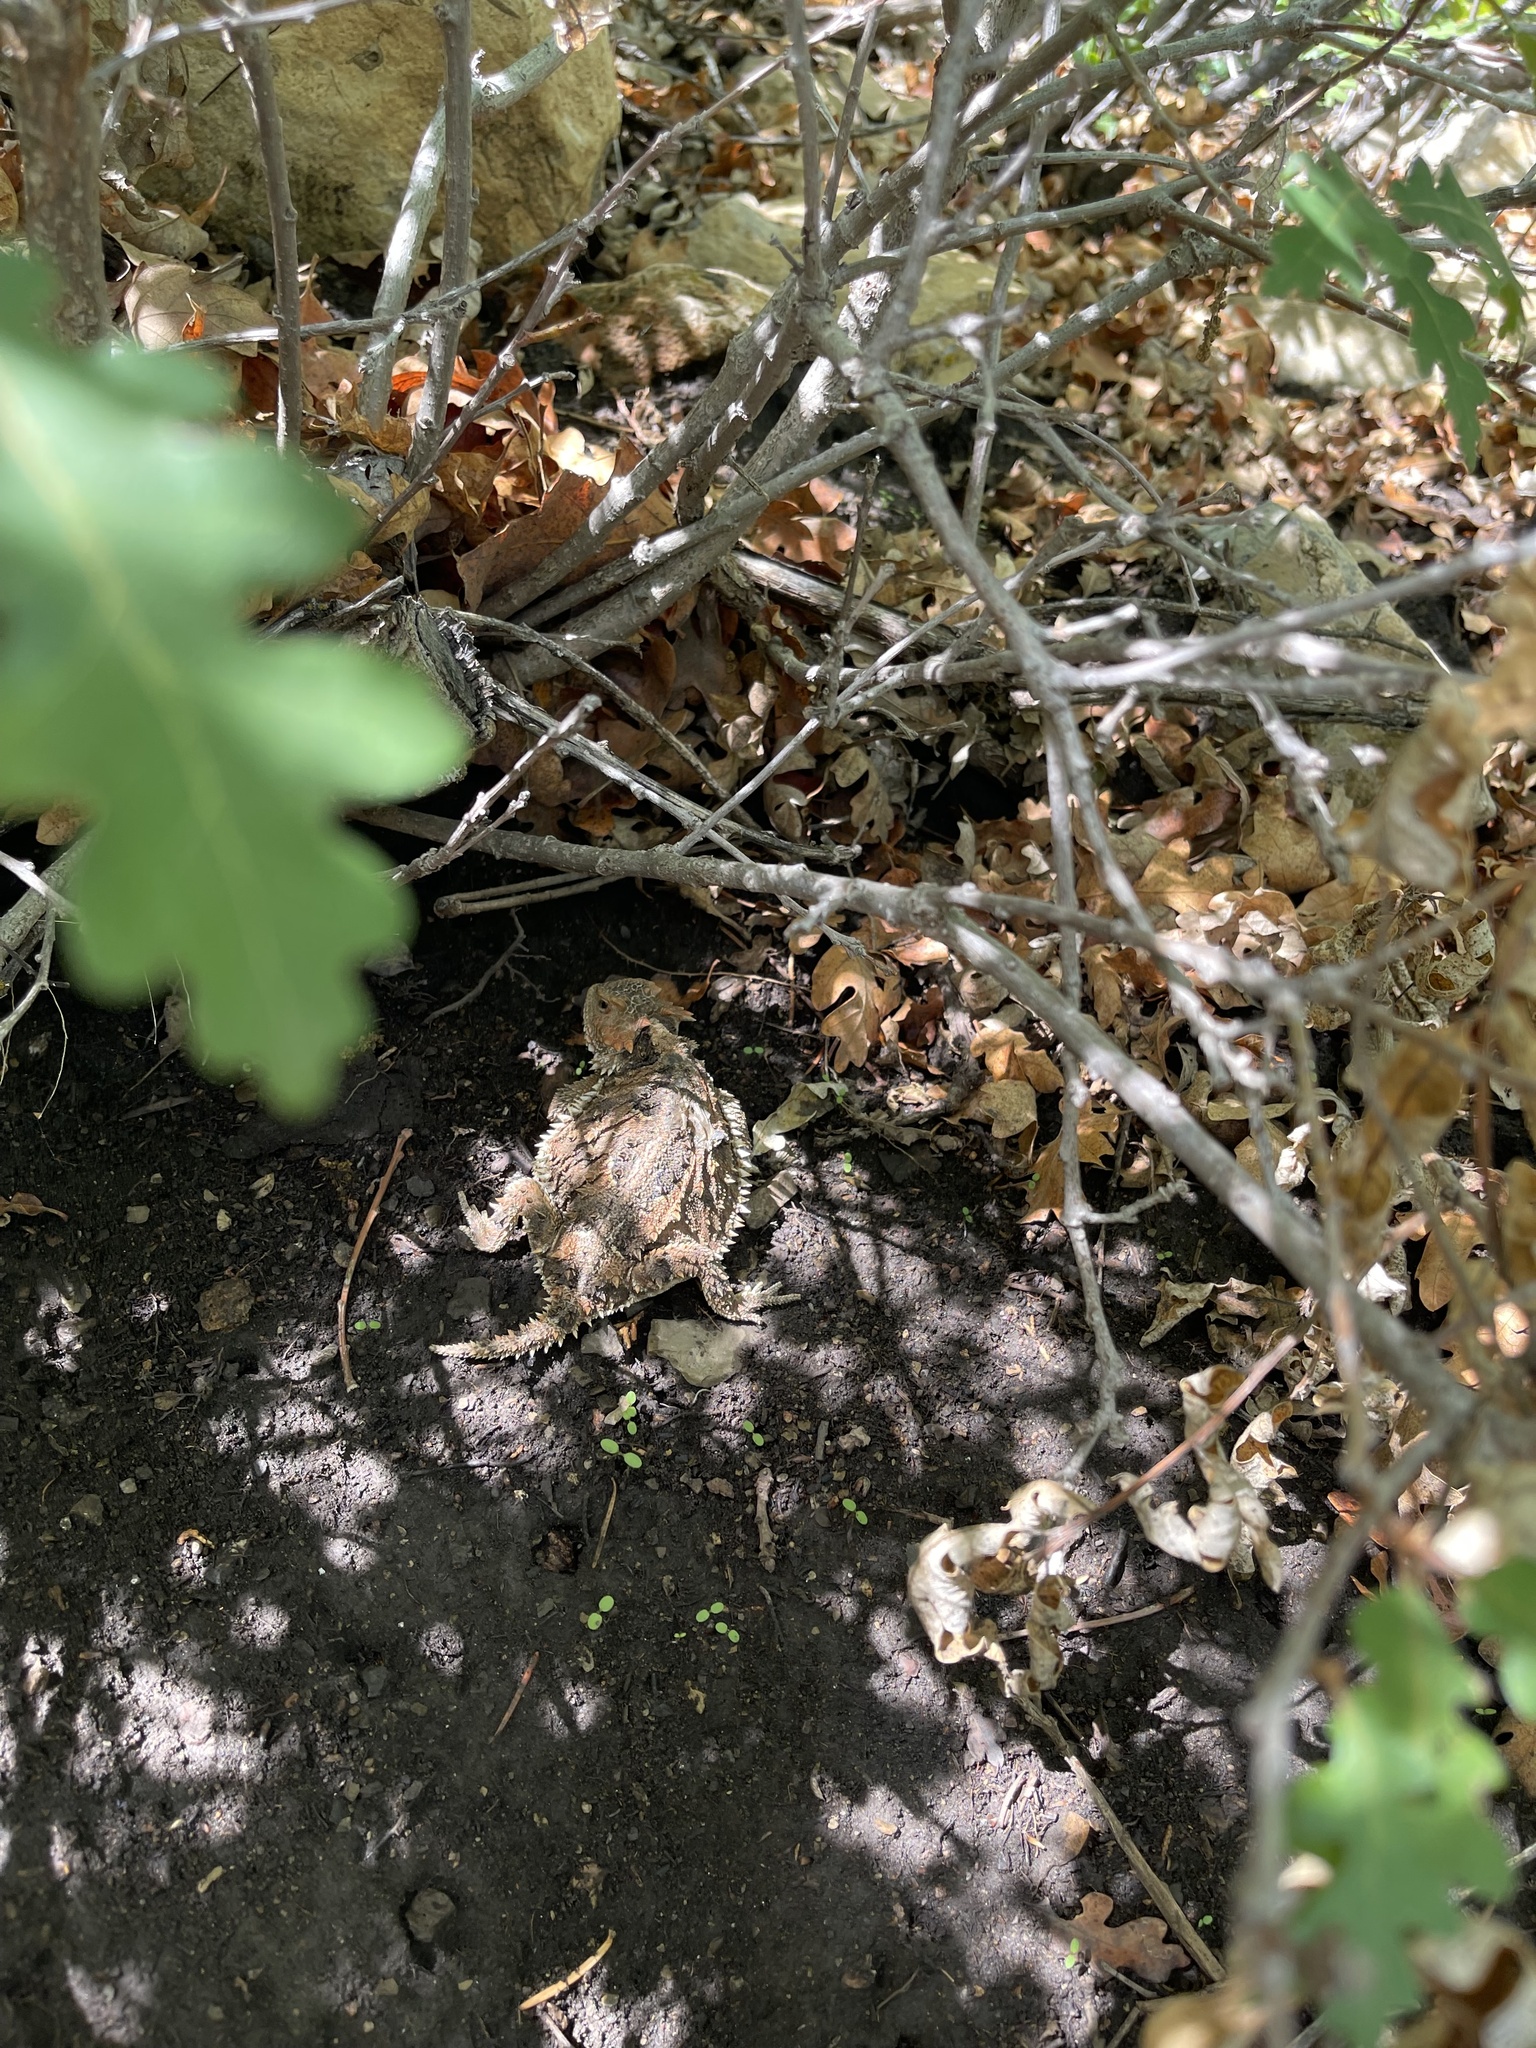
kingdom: Animalia
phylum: Chordata
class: Squamata
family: Phrynosomatidae
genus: Phrynosoma
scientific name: Phrynosoma hernandesi
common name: Greater short-horned lizard
